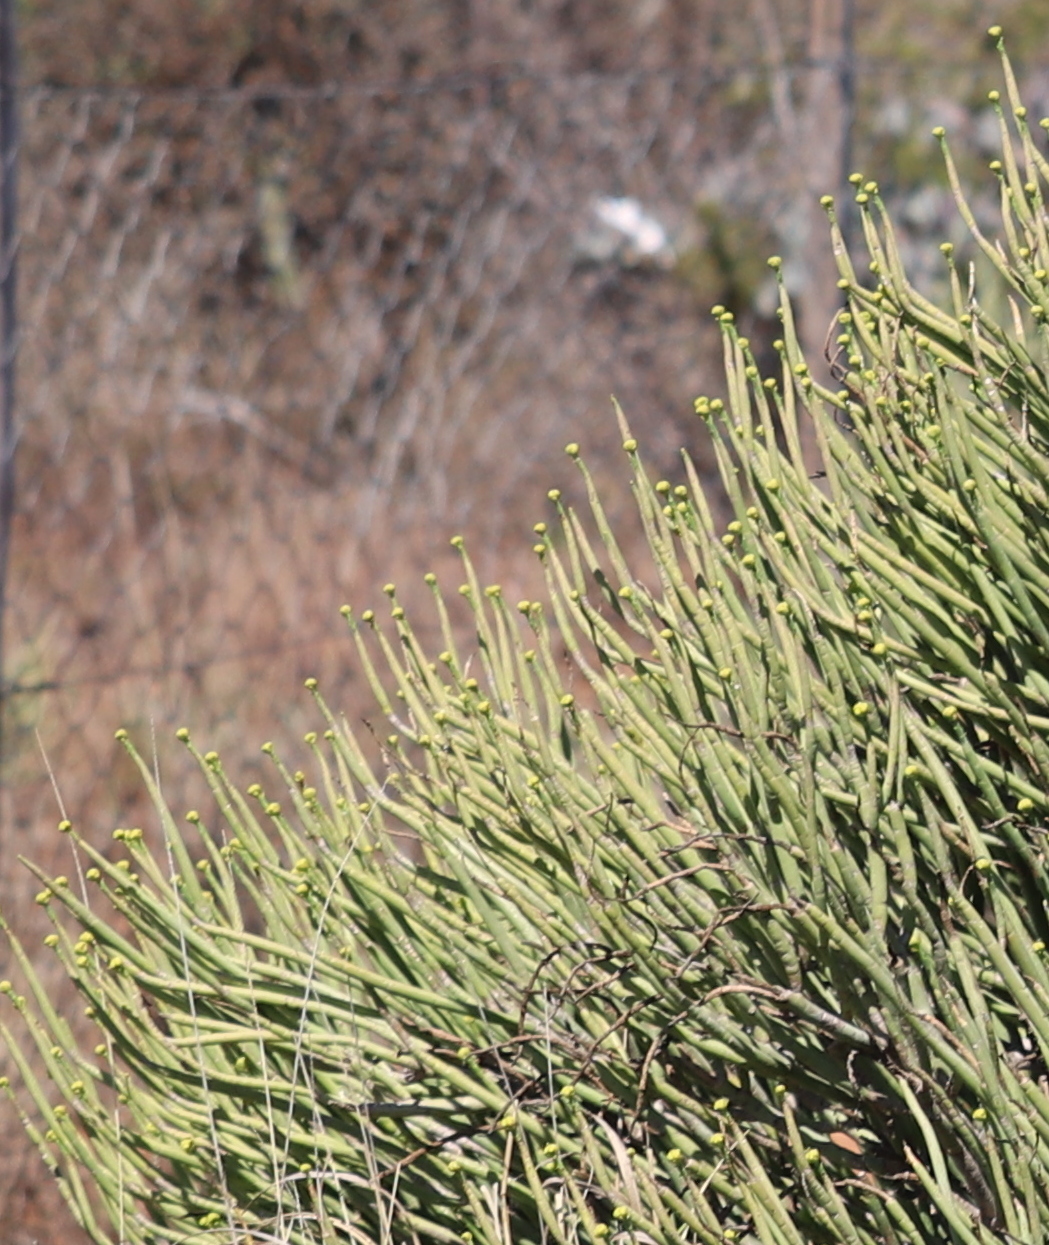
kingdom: Plantae
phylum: Tracheophyta
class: Magnoliopsida
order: Malpighiales
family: Euphorbiaceae
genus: Euphorbia
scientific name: Euphorbia mauritanica
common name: Jackal's-food
